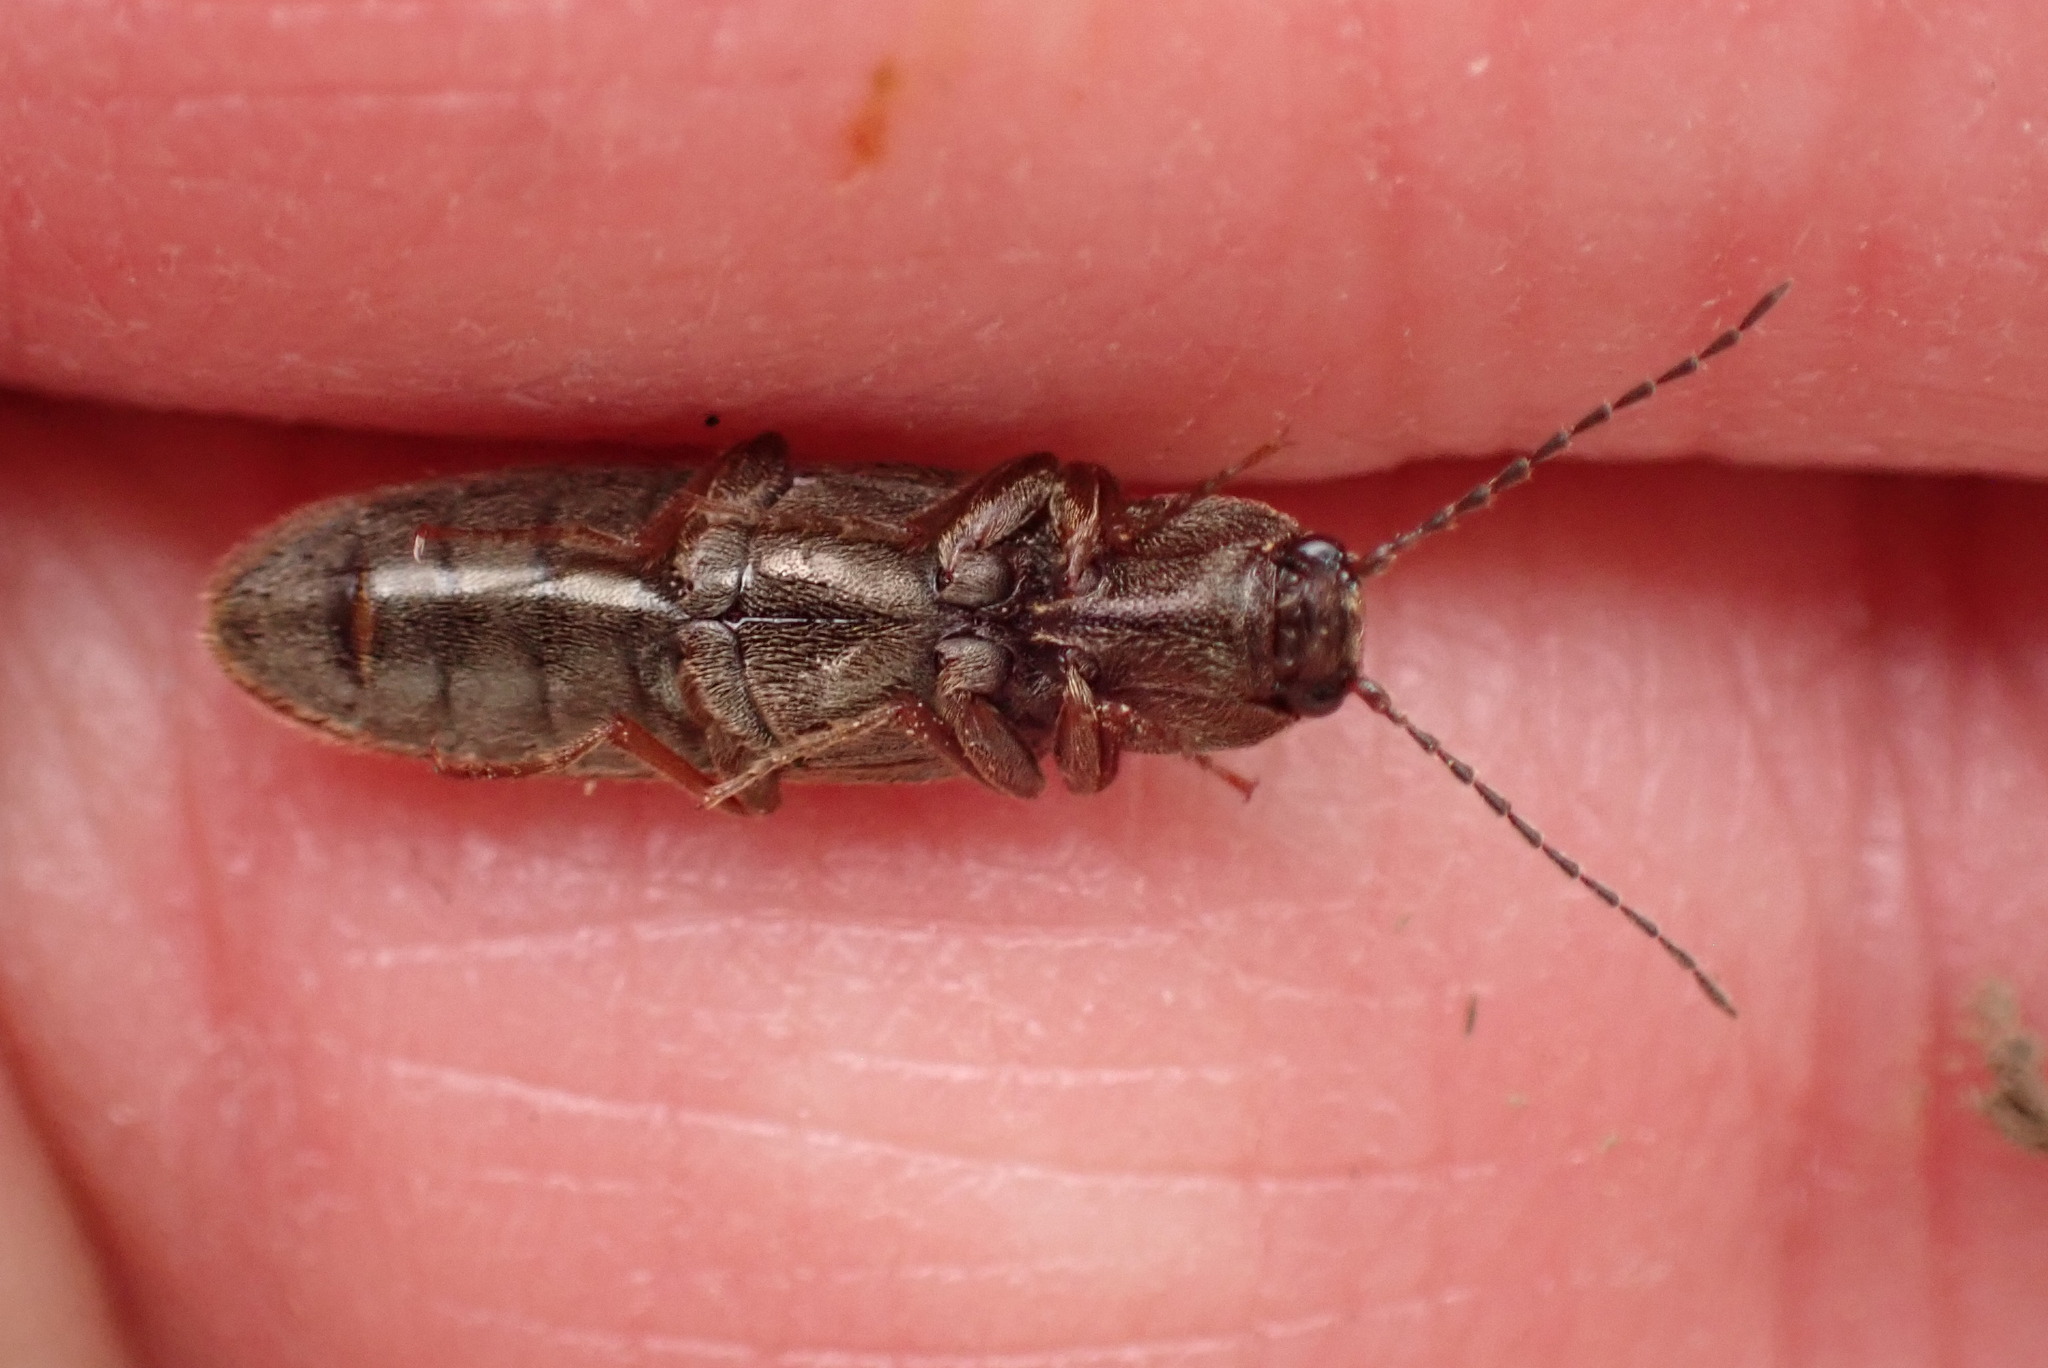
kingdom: Animalia
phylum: Arthropoda
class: Insecta
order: Coleoptera
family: Elateridae
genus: Sylvanelater
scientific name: Sylvanelater cylindriformis
